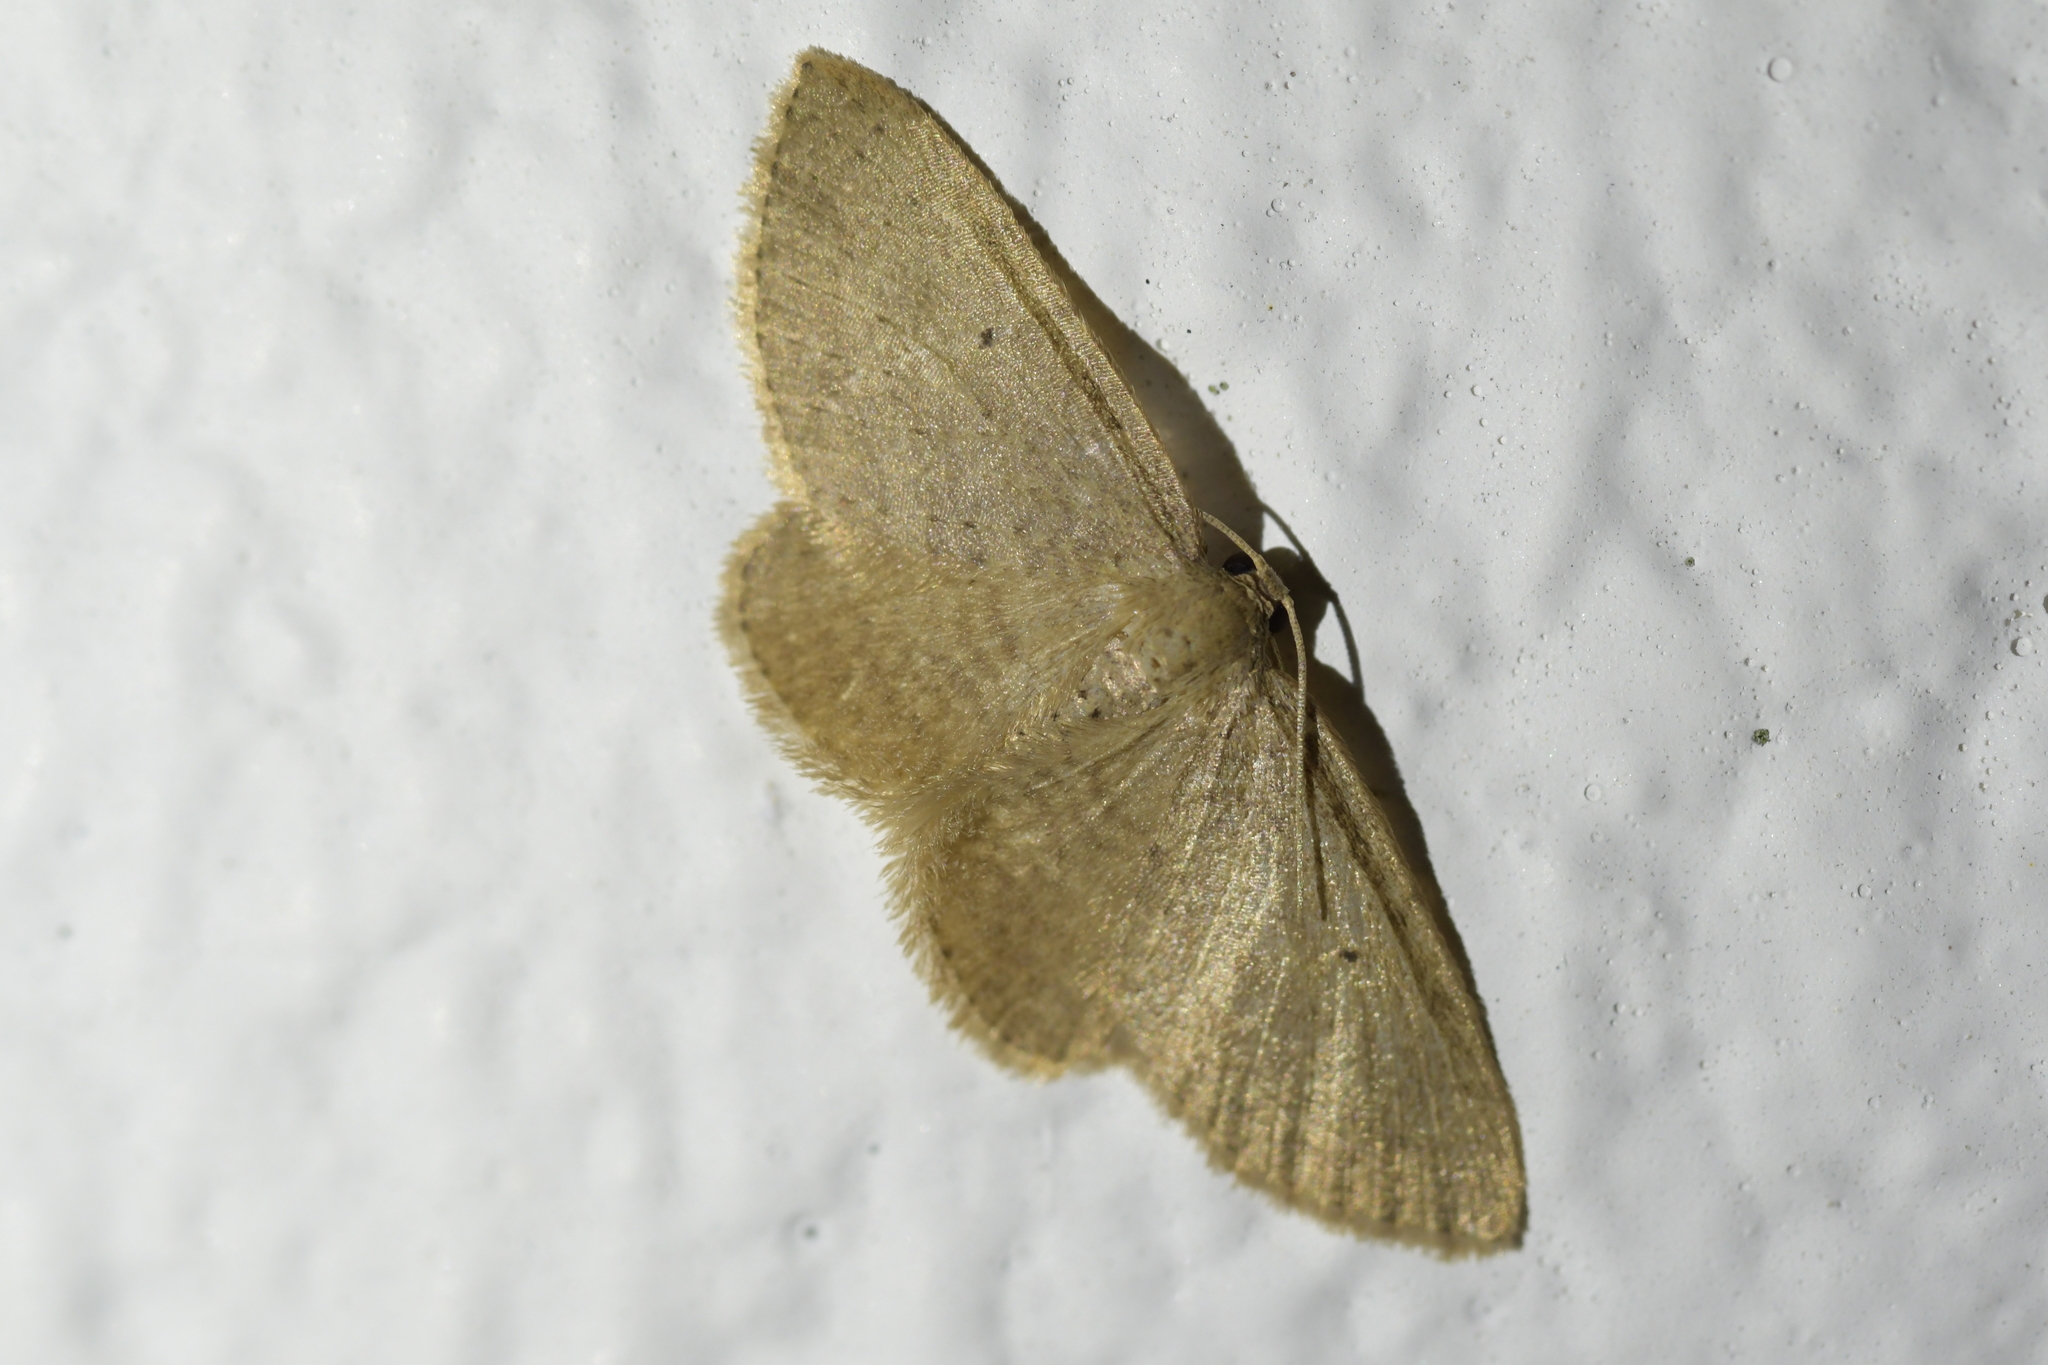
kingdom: Animalia
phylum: Arthropoda
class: Insecta
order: Lepidoptera
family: Geometridae
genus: Poecilasthena
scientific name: Poecilasthena schistaria
